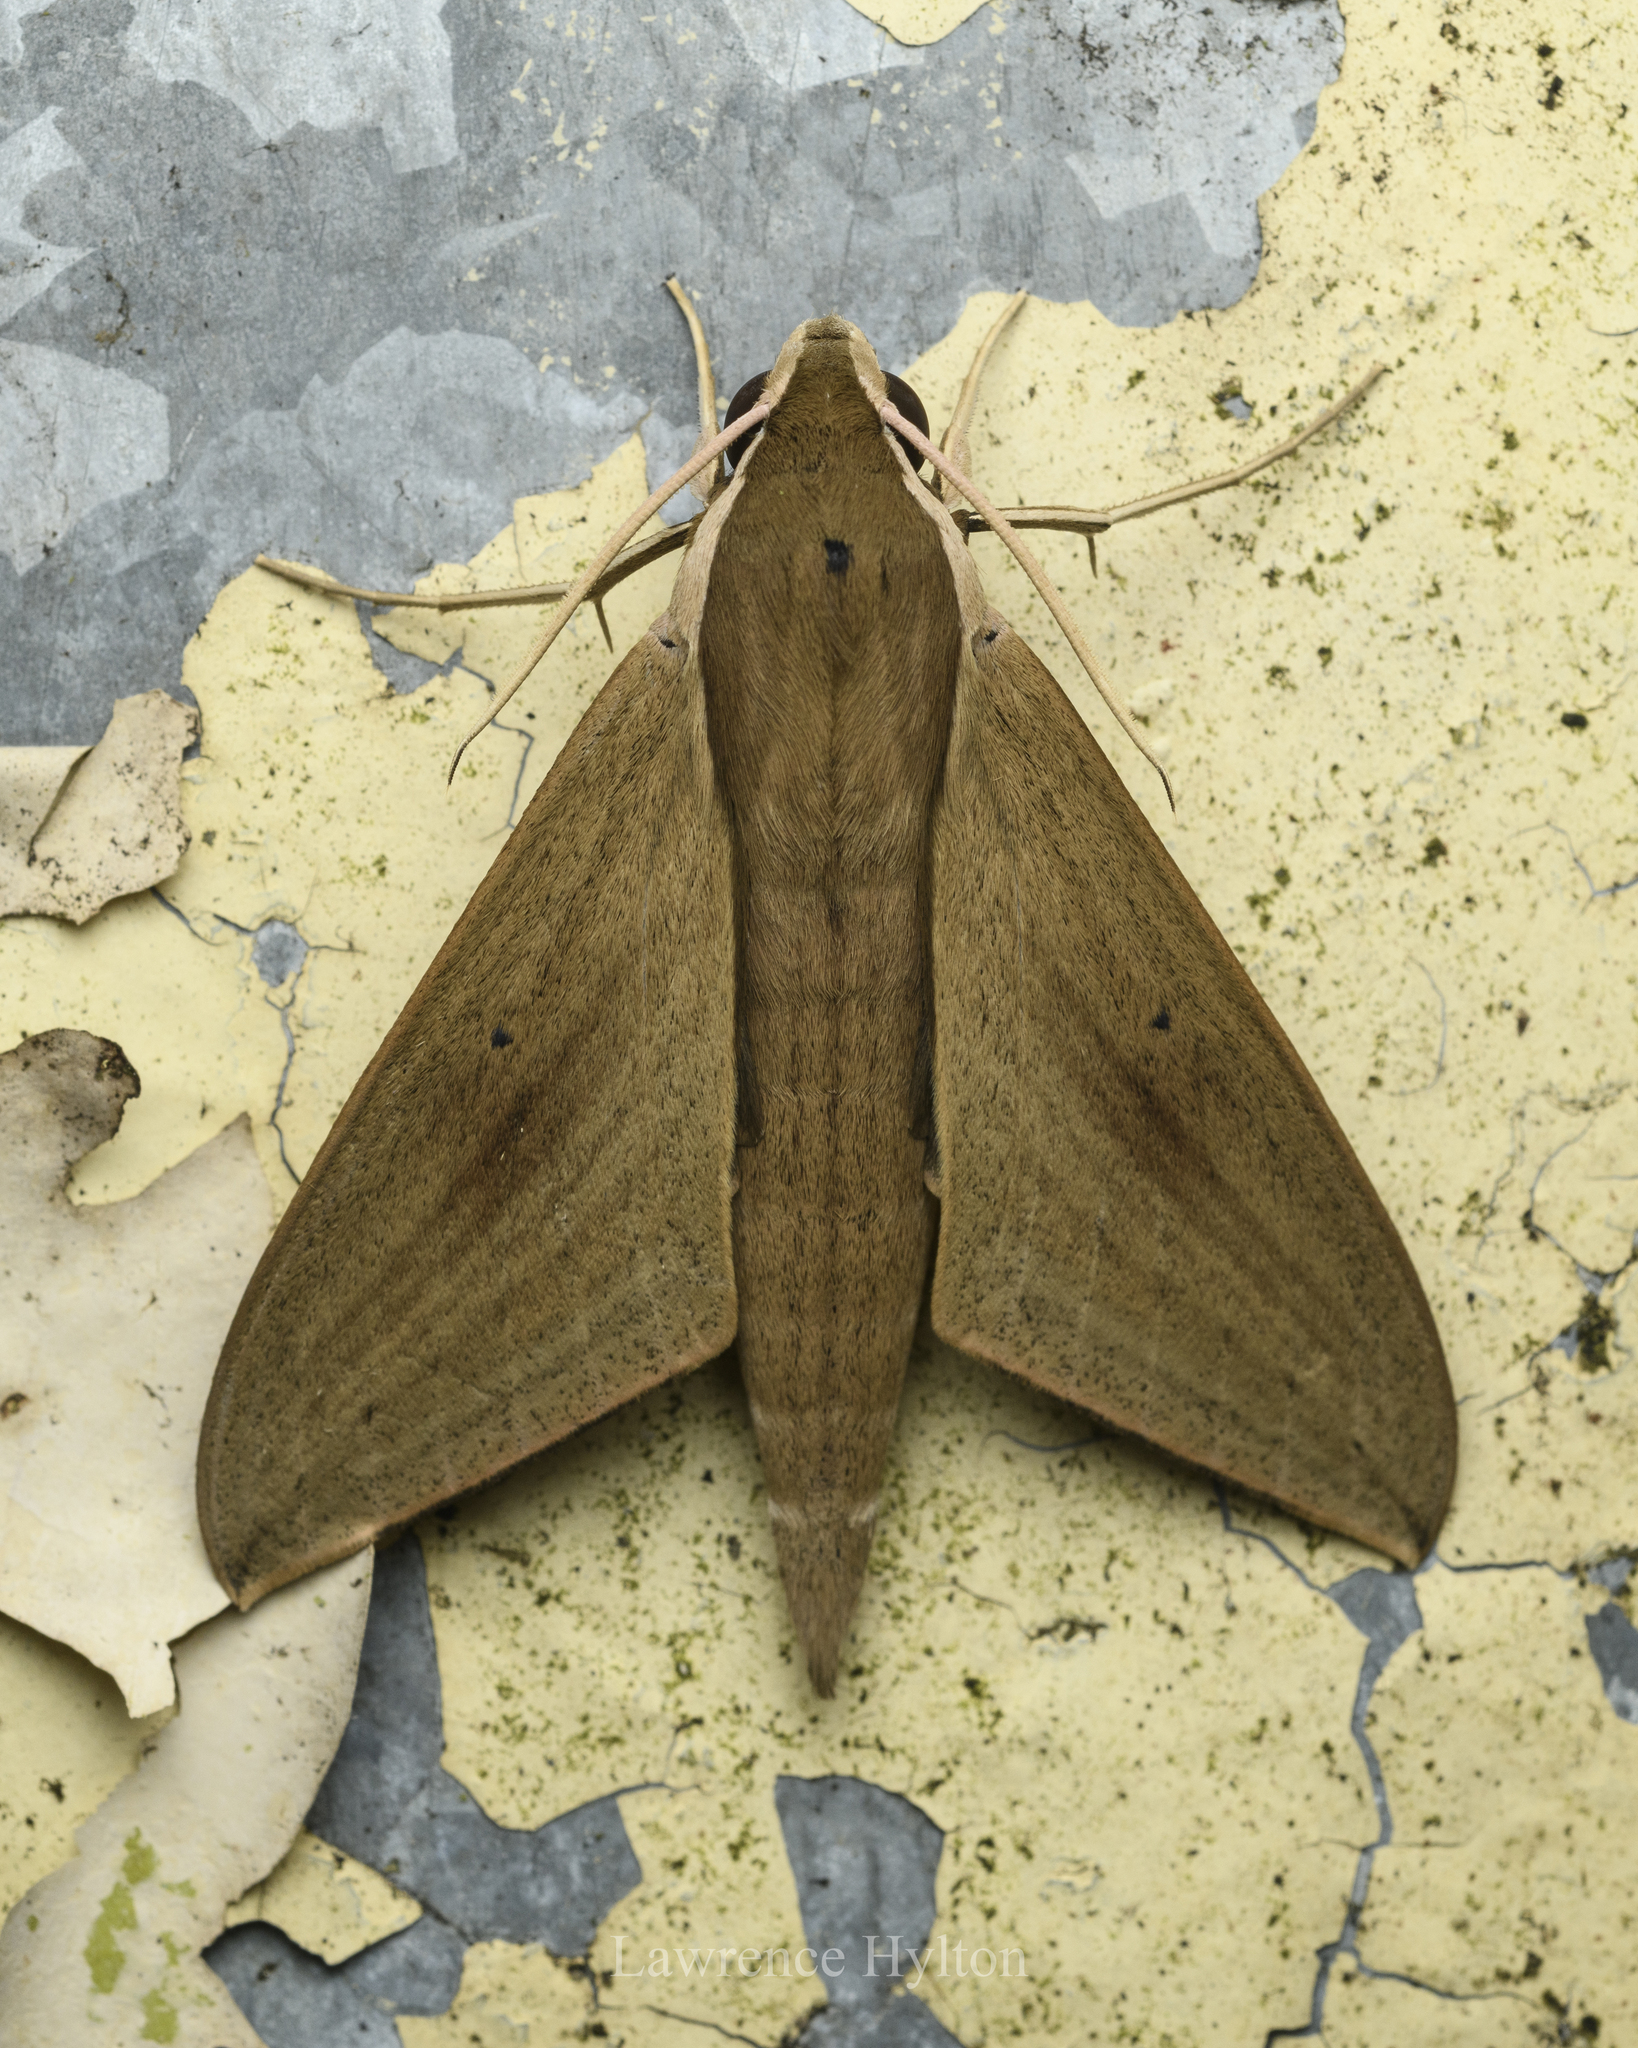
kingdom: Animalia
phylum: Arthropoda
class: Insecta
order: Lepidoptera
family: Sphingidae
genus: Theretra
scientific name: Theretra rhesus
